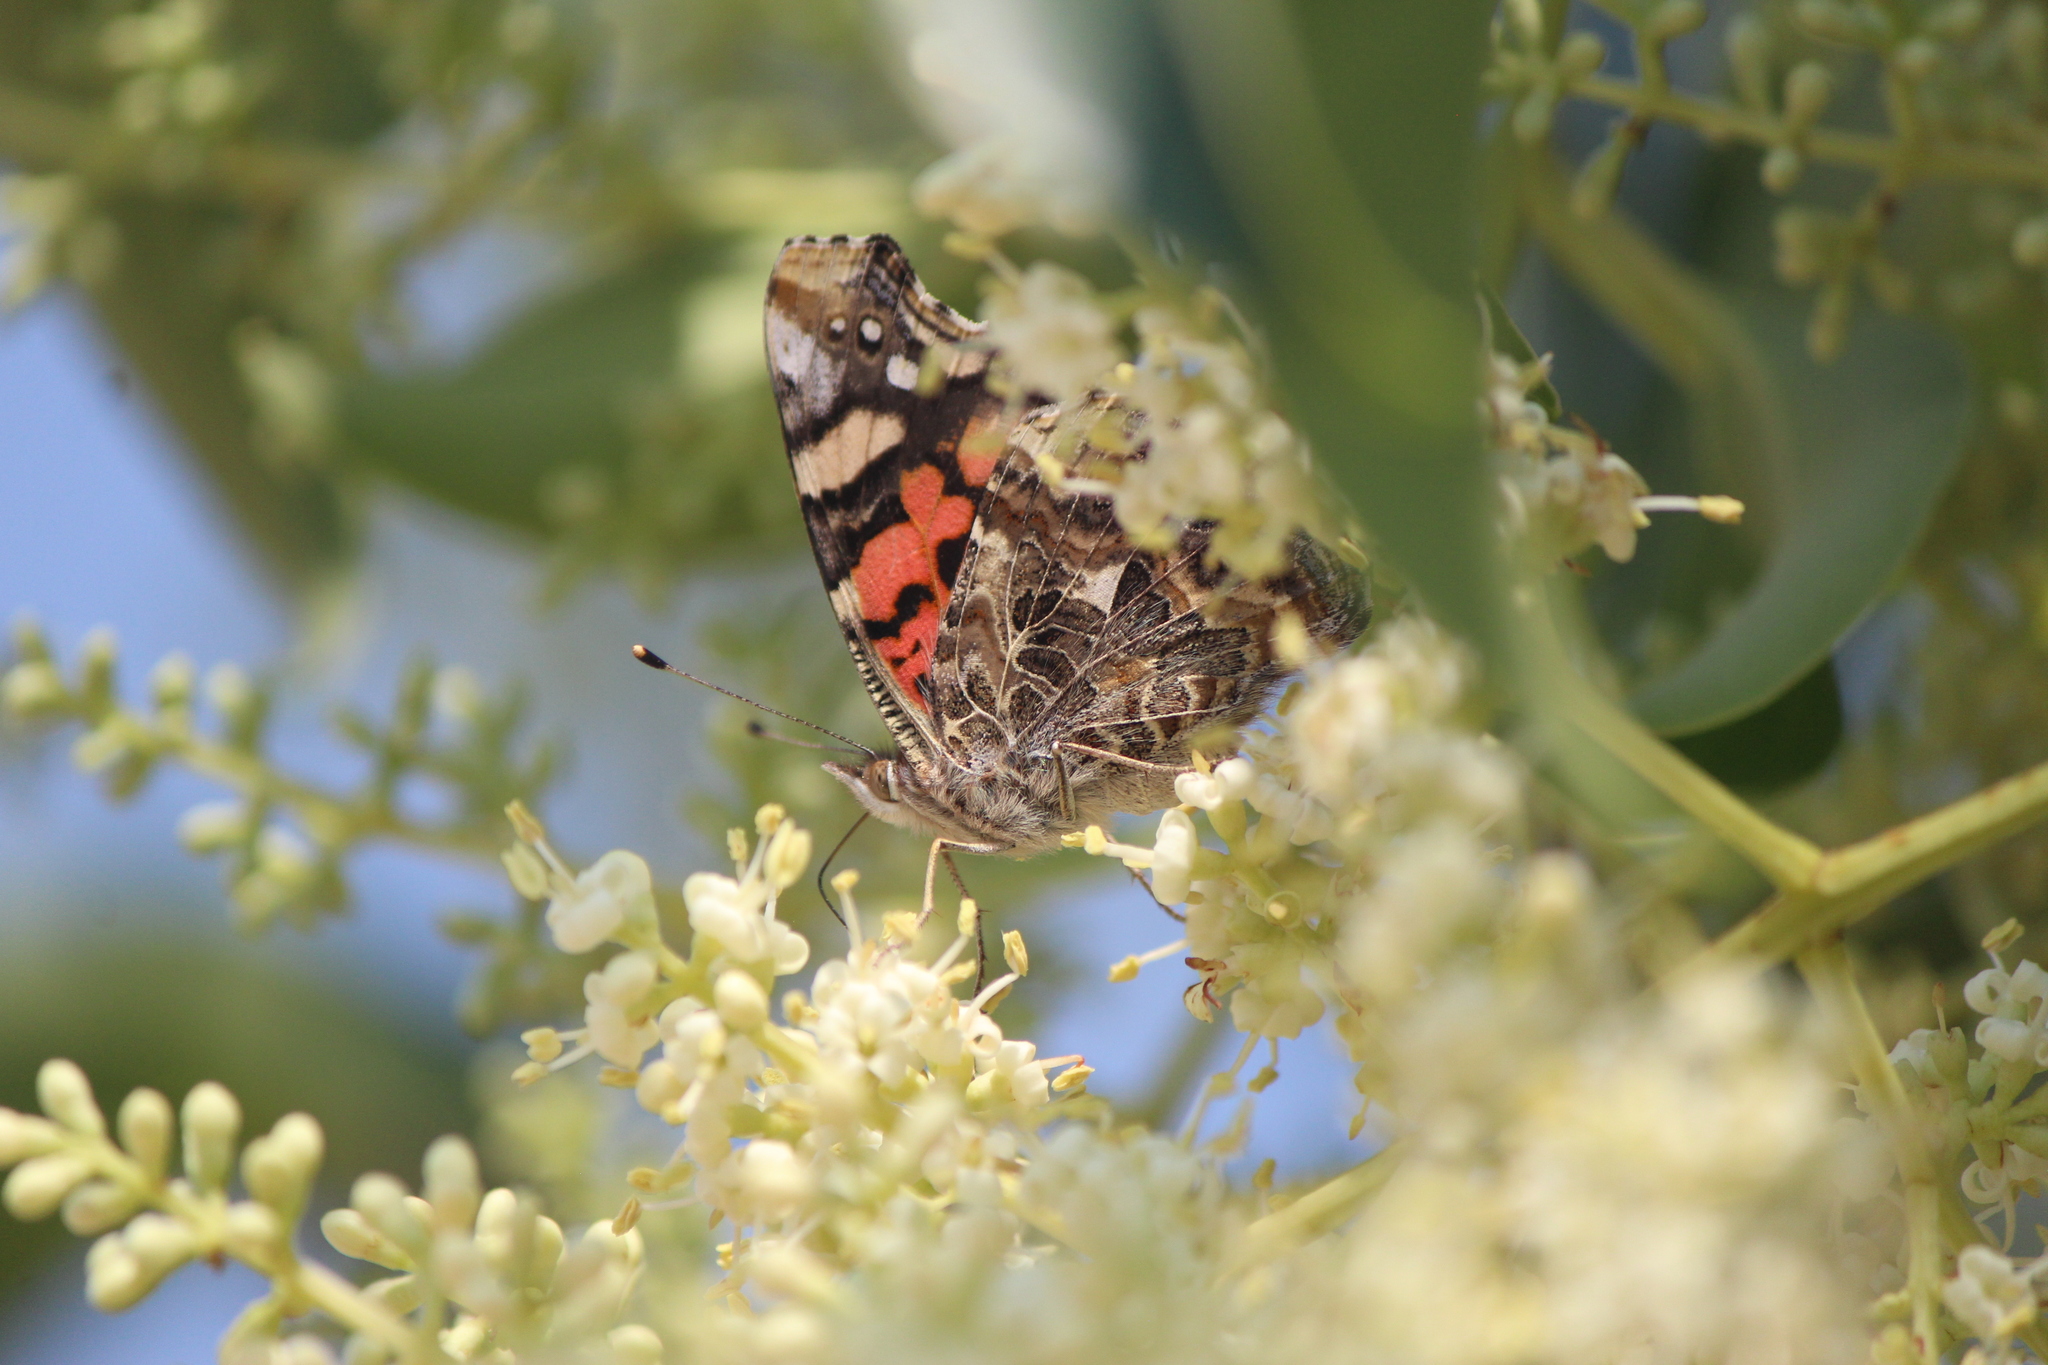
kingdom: Animalia
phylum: Arthropoda
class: Insecta
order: Lepidoptera
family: Nymphalidae
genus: Vanessa
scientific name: Vanessa annabella
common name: West coast lady
